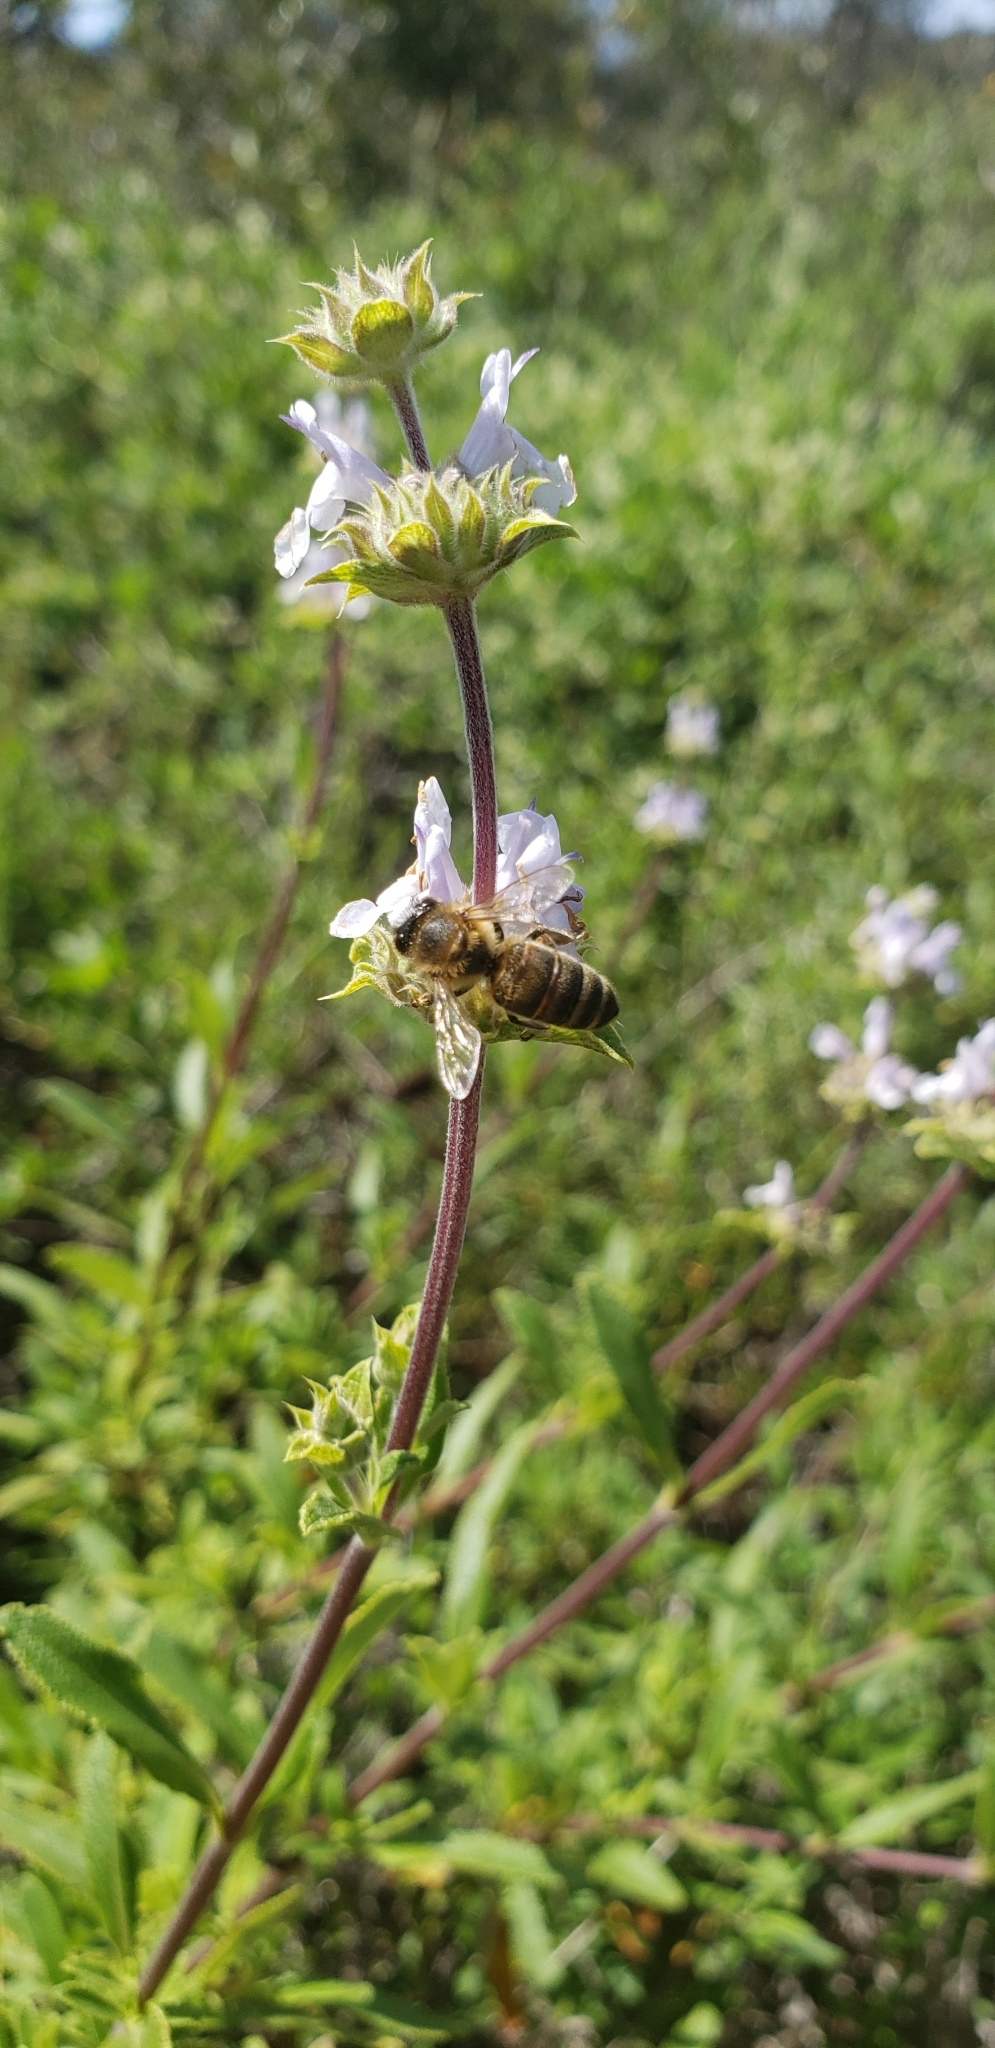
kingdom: Animalia
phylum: Arthropoda
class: Insecta
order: Hymenoptera
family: Apidae
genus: Apis
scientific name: Apis mellifera
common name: Honey bee
